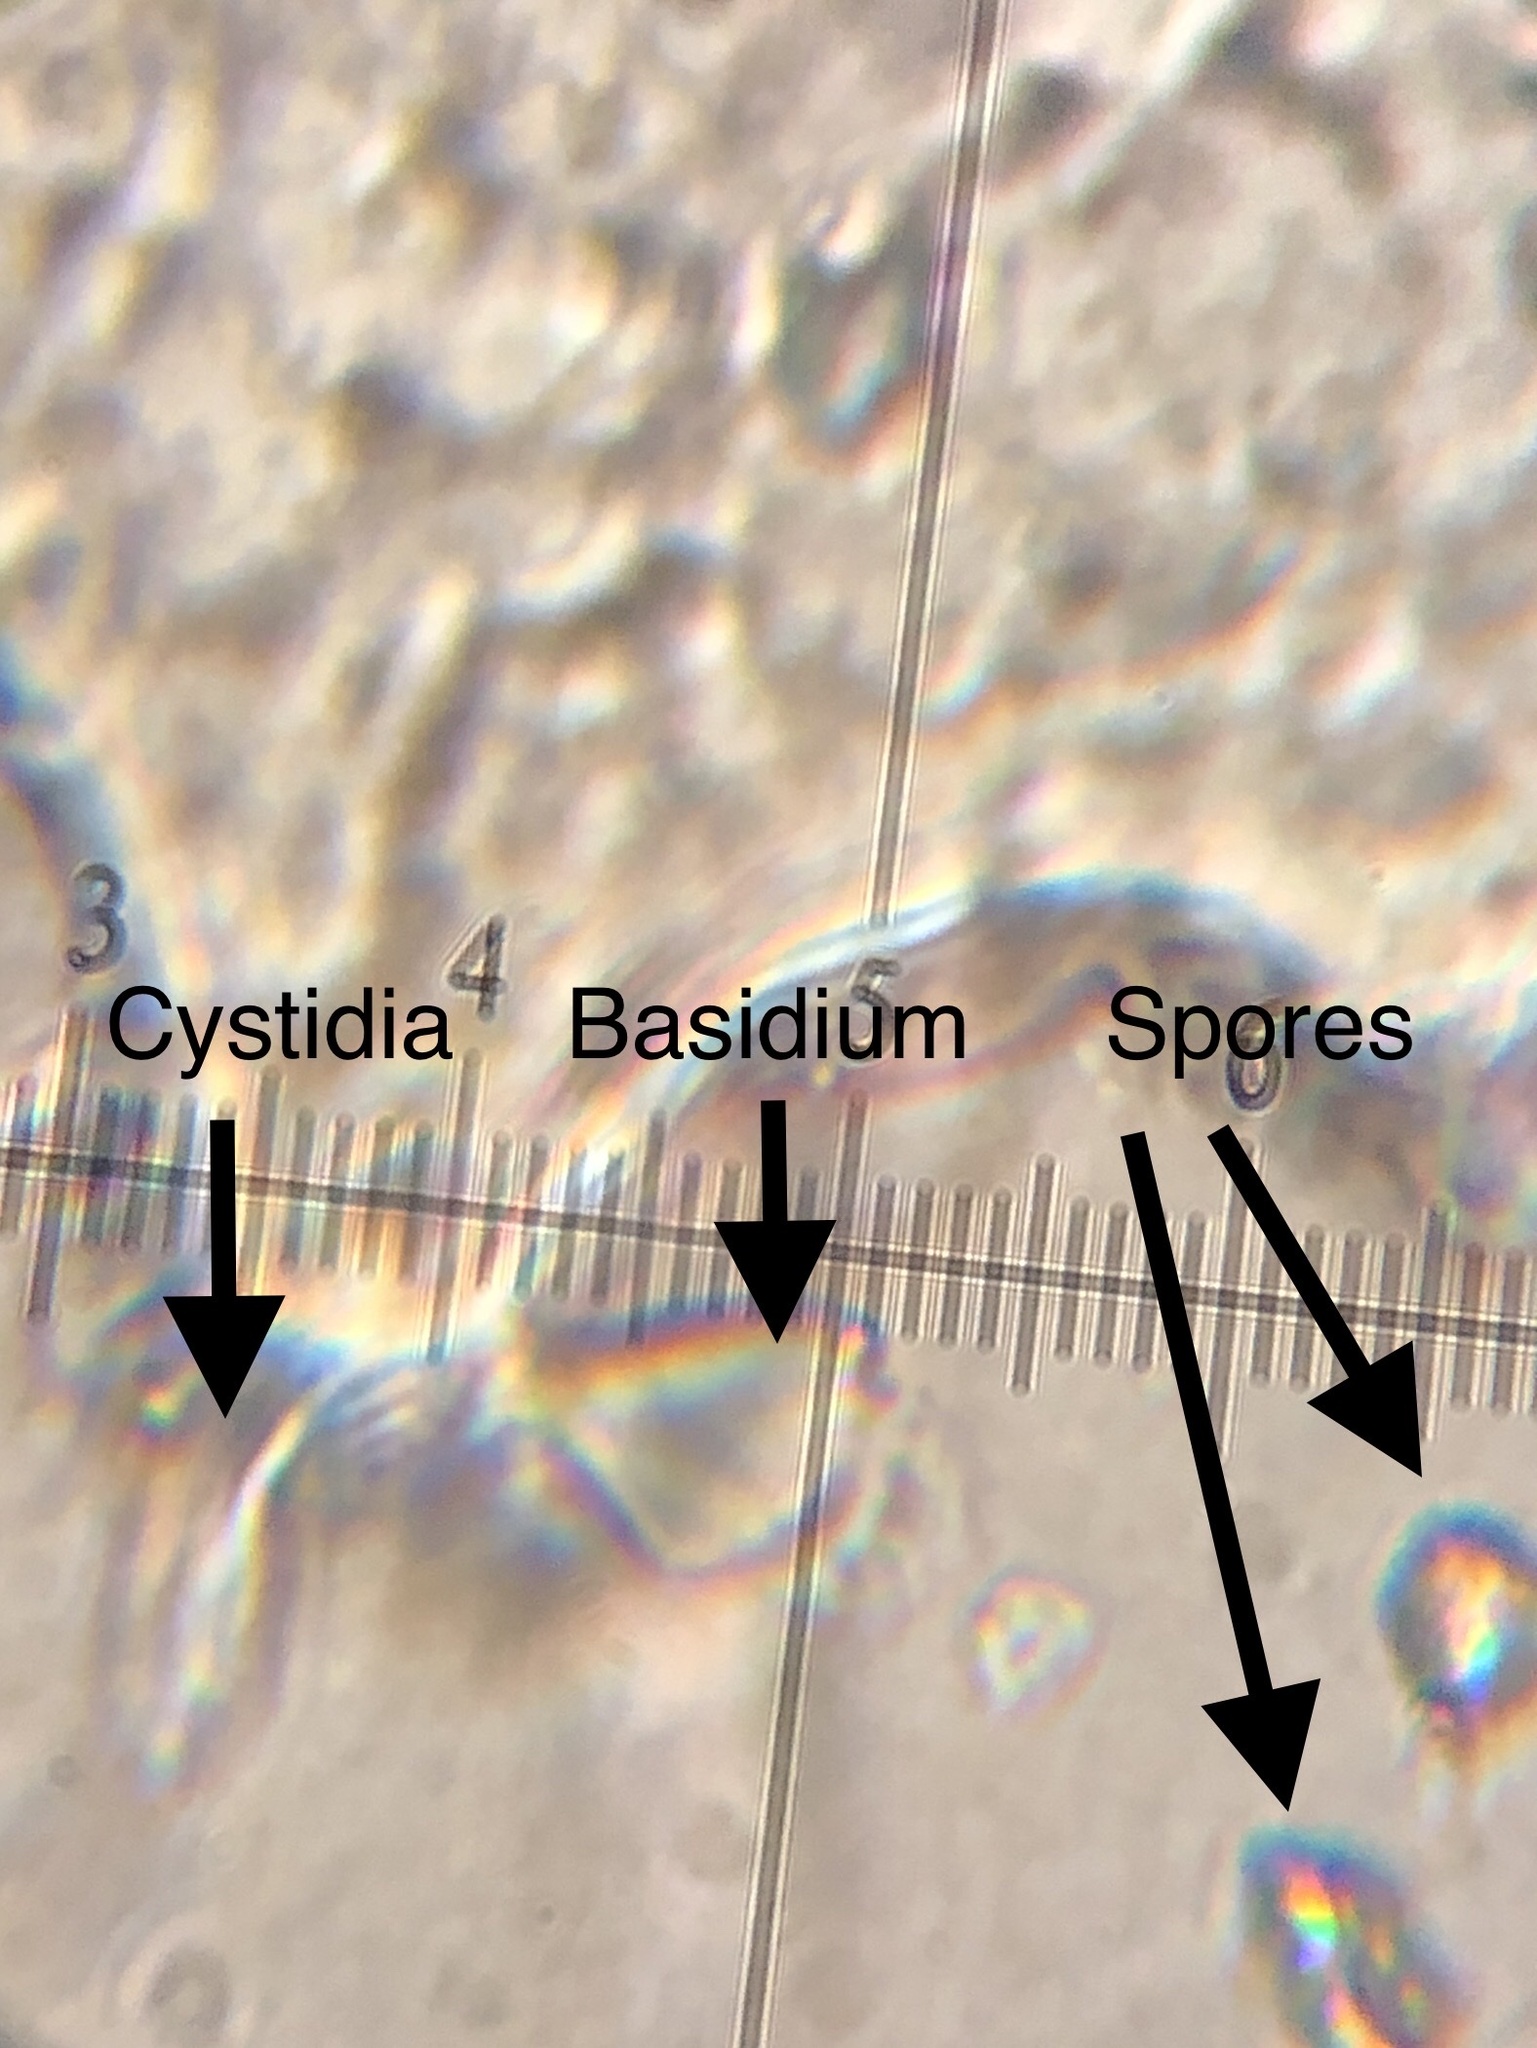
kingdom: Fungi
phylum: Basidiomycota
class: Agaricomycetes
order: Agaricales
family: Mycenaceae
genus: Mycena
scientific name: Mycena leptocephala
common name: Nitrous bonnet
